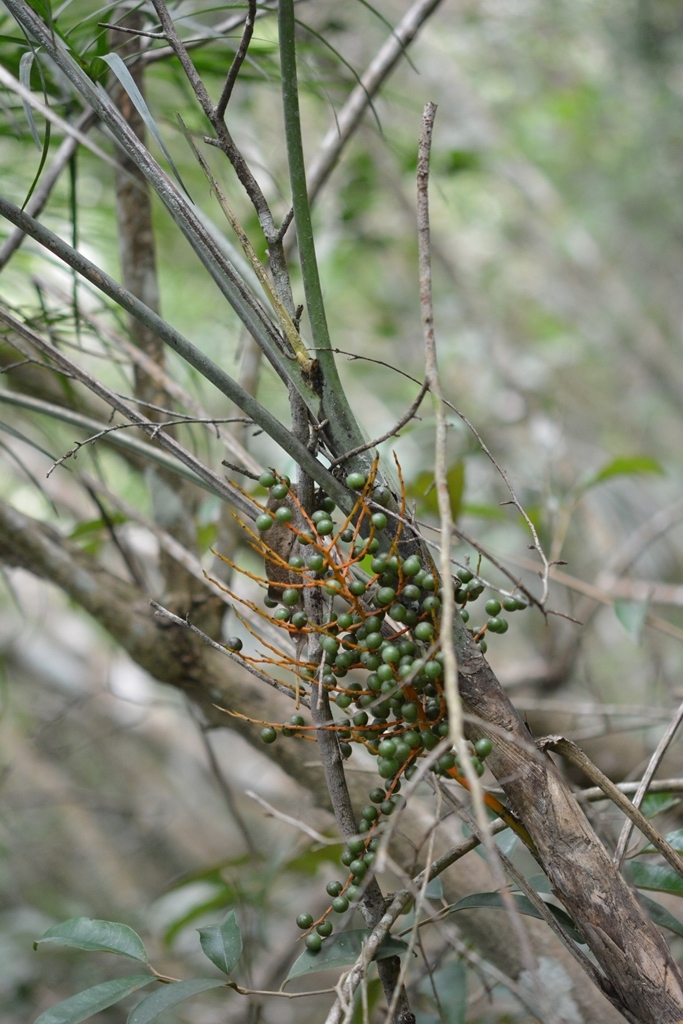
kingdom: Plantae
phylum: Tracheophyta
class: Liliopsida
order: Arecales
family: Arecaceae
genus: Chamaedorea
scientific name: Chamaedorea glaucifolia
